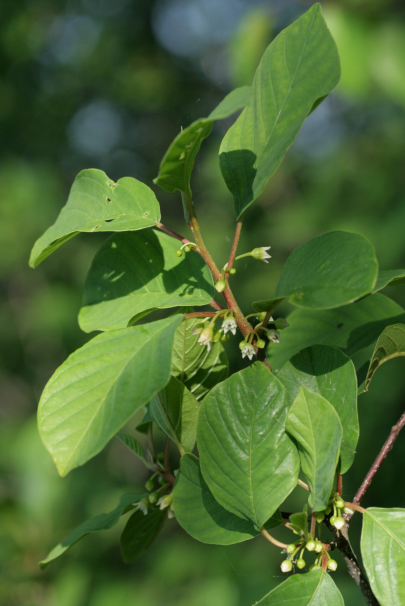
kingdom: Plantae
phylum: Tracheophyta
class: Magnoliopsida
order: Rosales
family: Rhamnaceae
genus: Frangula
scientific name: Frangula alnus
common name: Alder buckthorn
